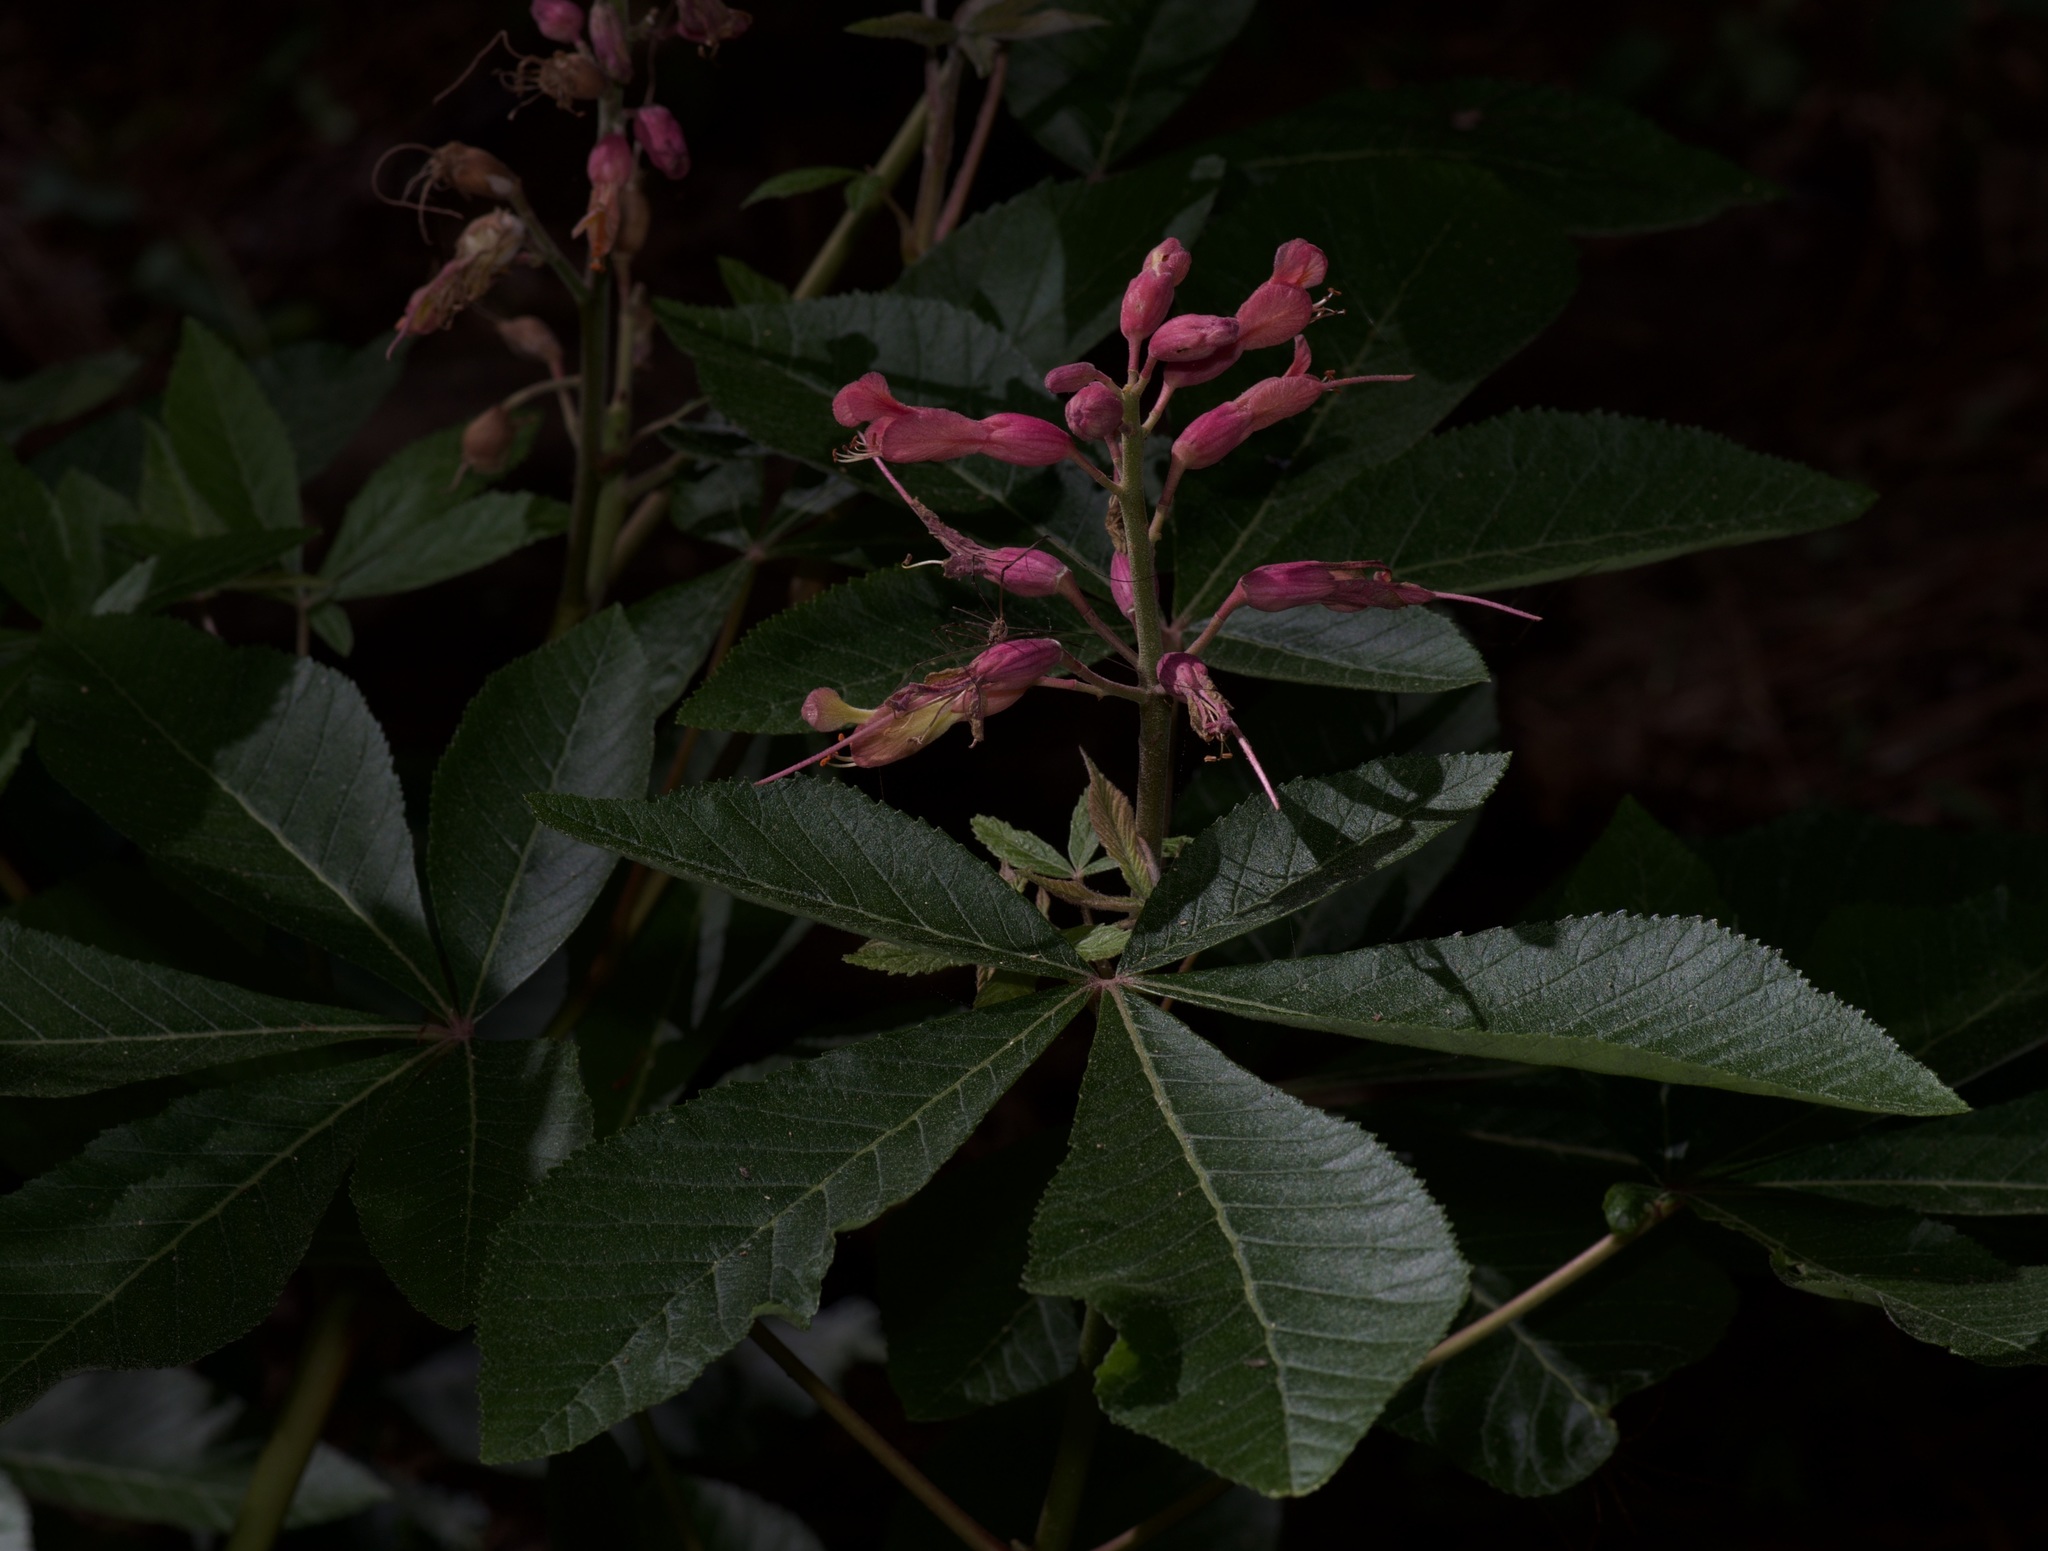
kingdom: Plantae
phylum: Tracheophyta
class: Magnoliopsida
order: Sapindales
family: Sapindaceae
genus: Aesculus
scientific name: Aesculus pavia
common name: Red buckeye
